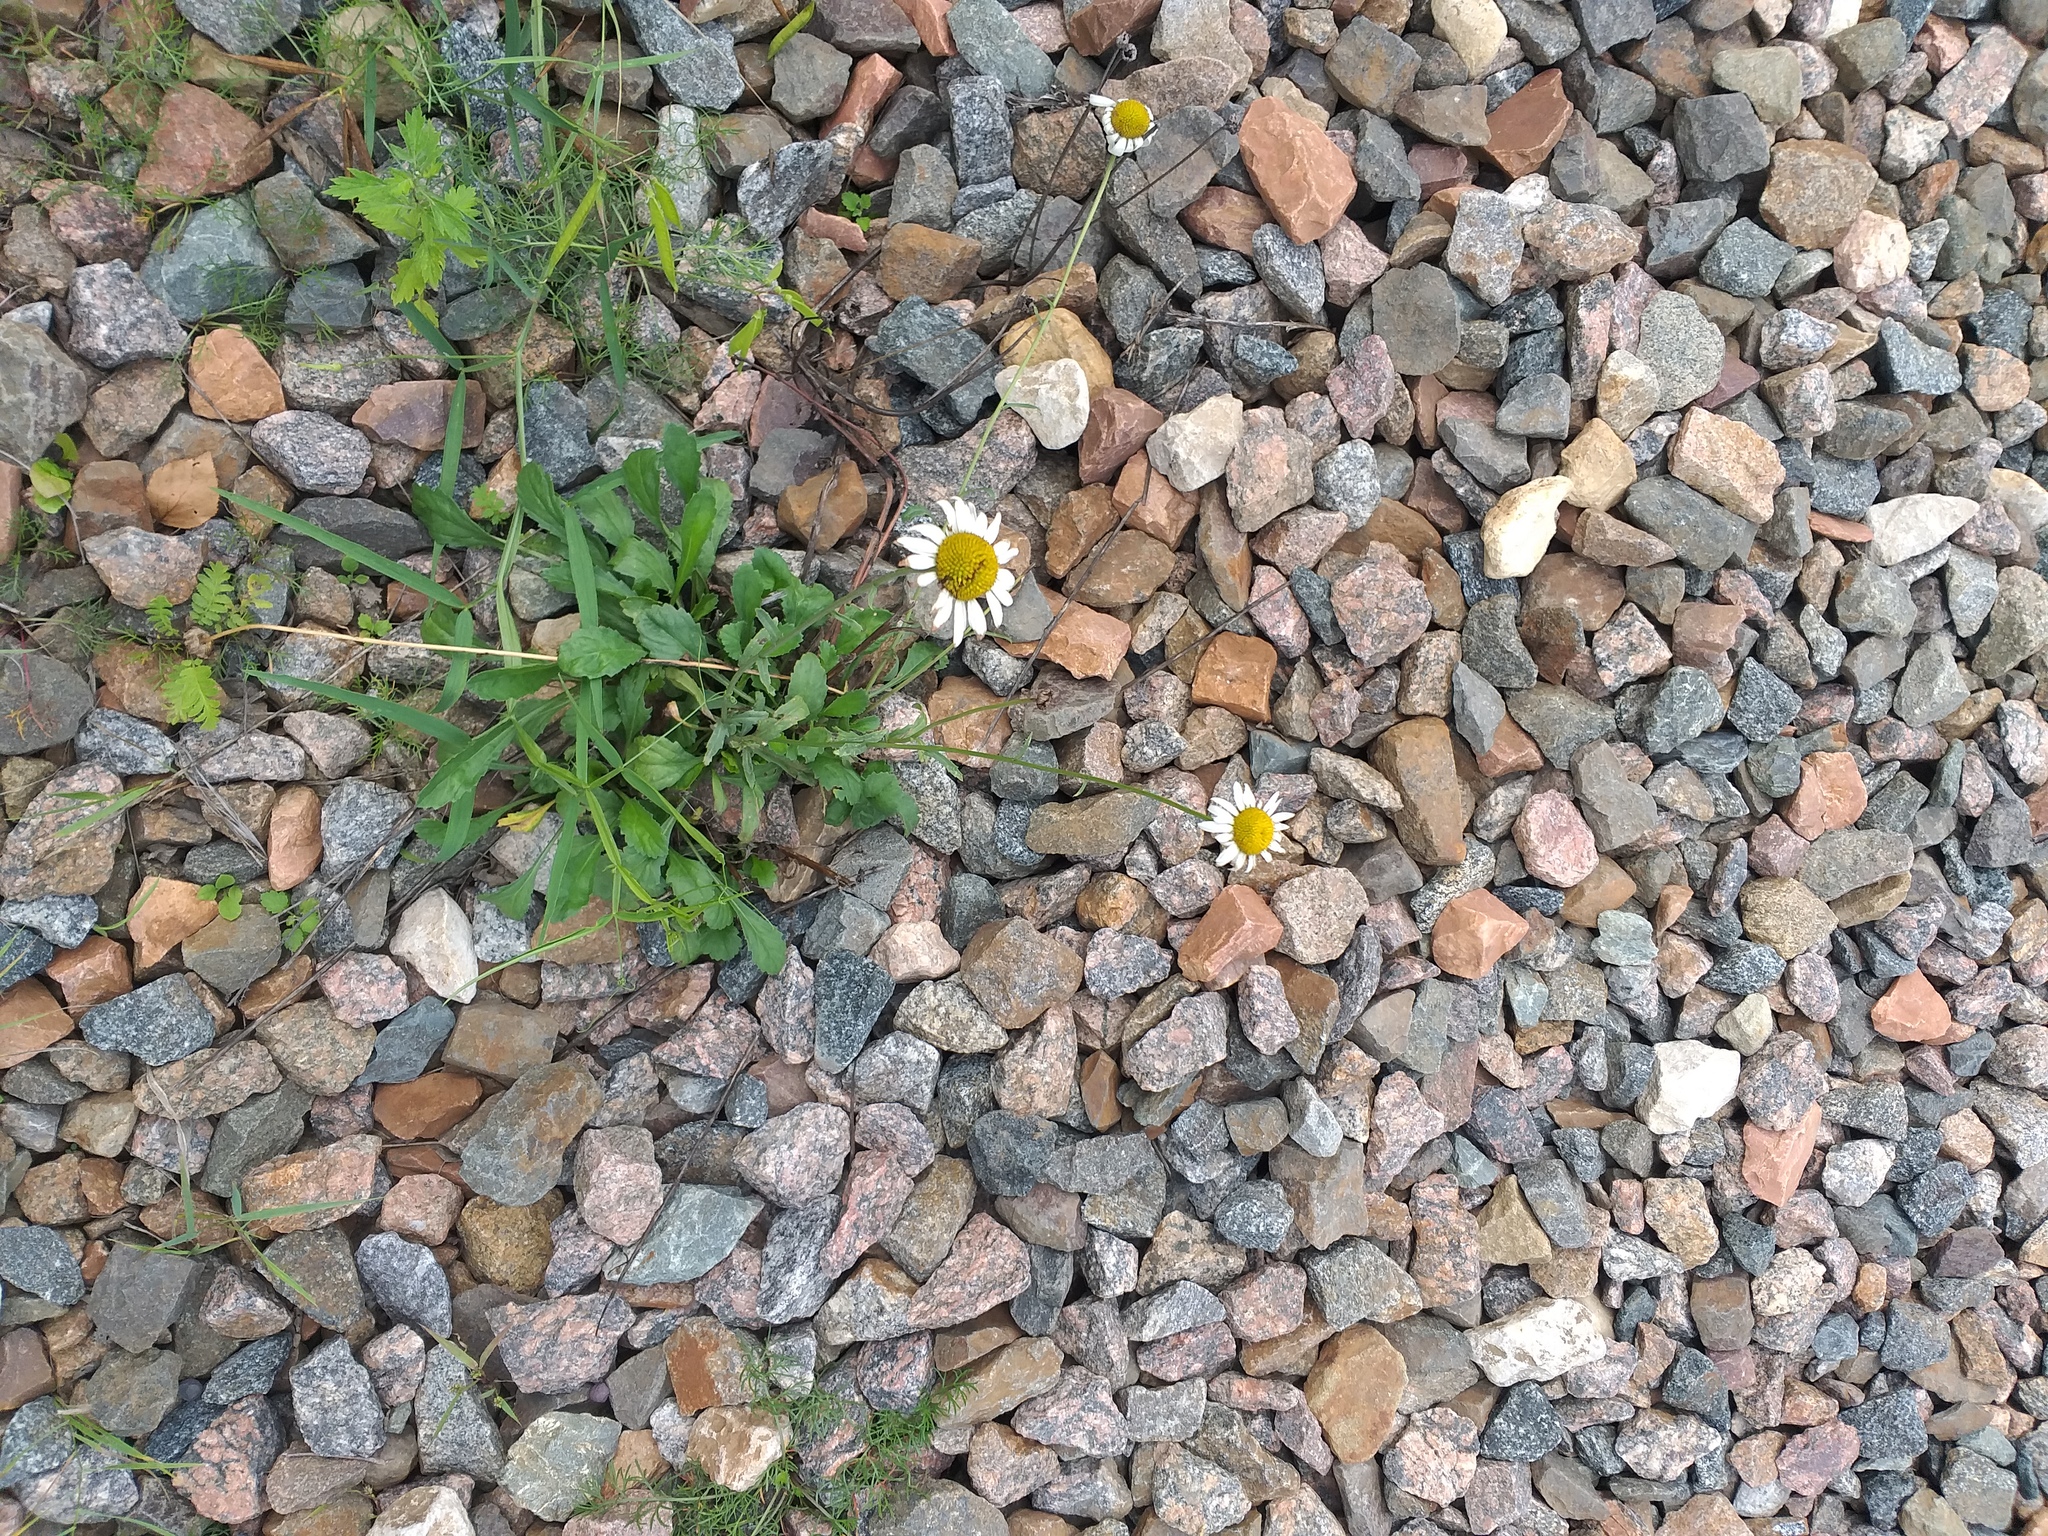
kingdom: Plantae
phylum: Tracheophyta
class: Magnoliopsida
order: Asterales
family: Asteraceae
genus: Leucanthemum
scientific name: Leucanthemum vulgare
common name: Oxeye daisy
